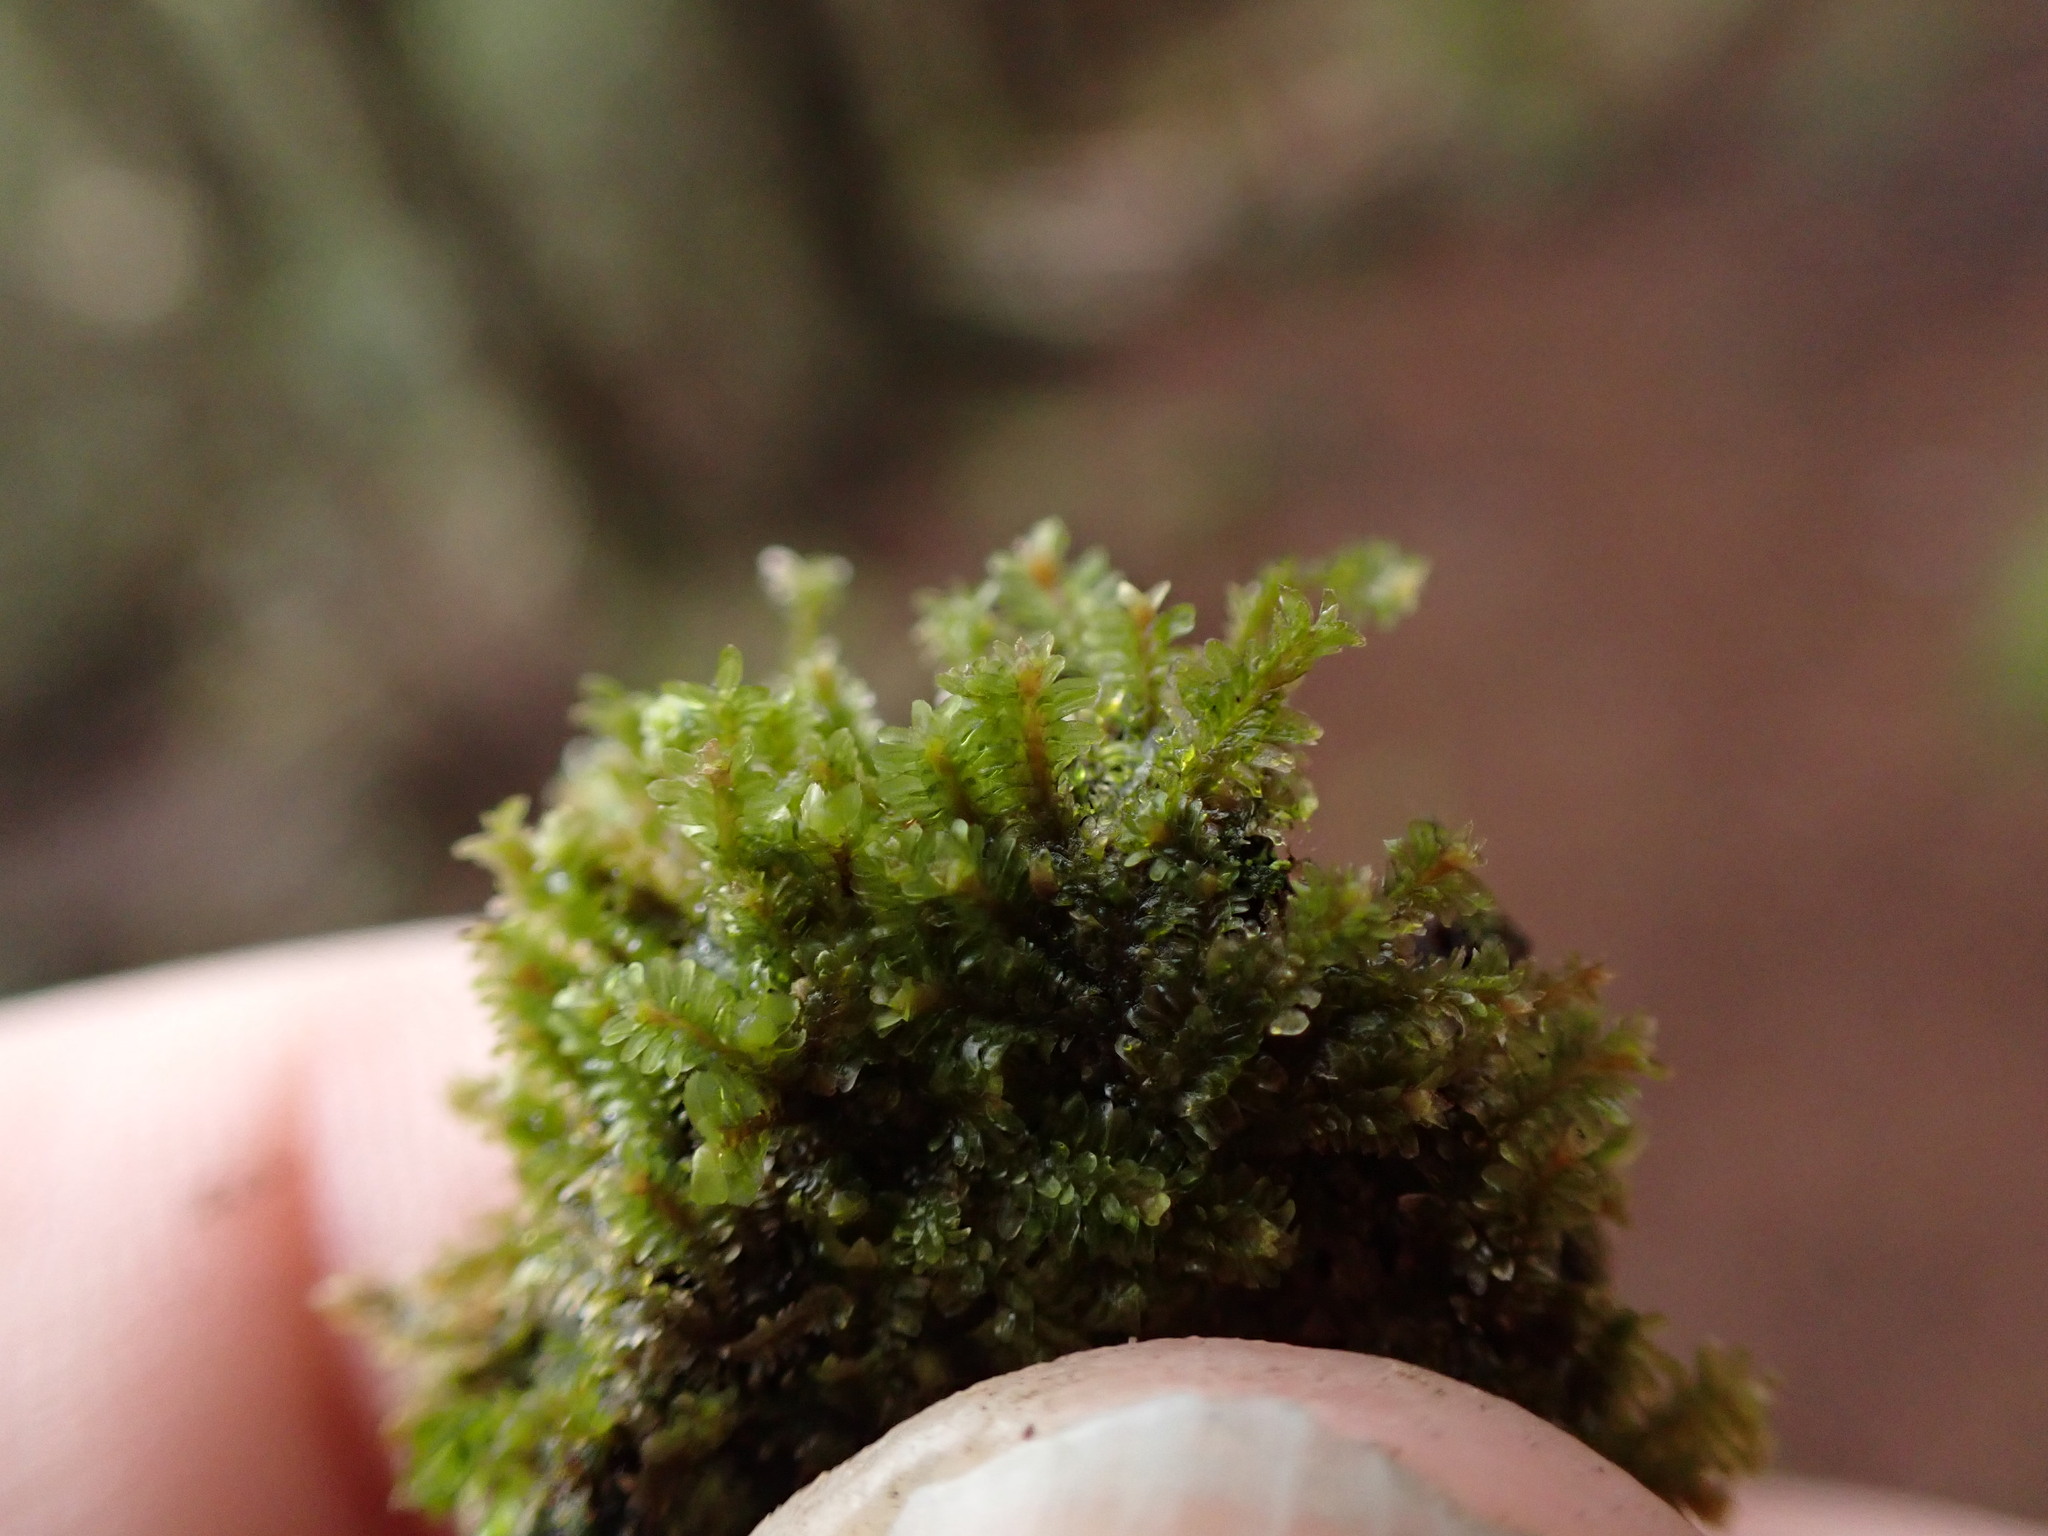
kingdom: Plantae
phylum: Marchantiophyta
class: Jungermanniopsida
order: Jungermanniales
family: Scapaniaceae
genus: Diplophyllum
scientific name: Diplophyllum albicans
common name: White earwort
